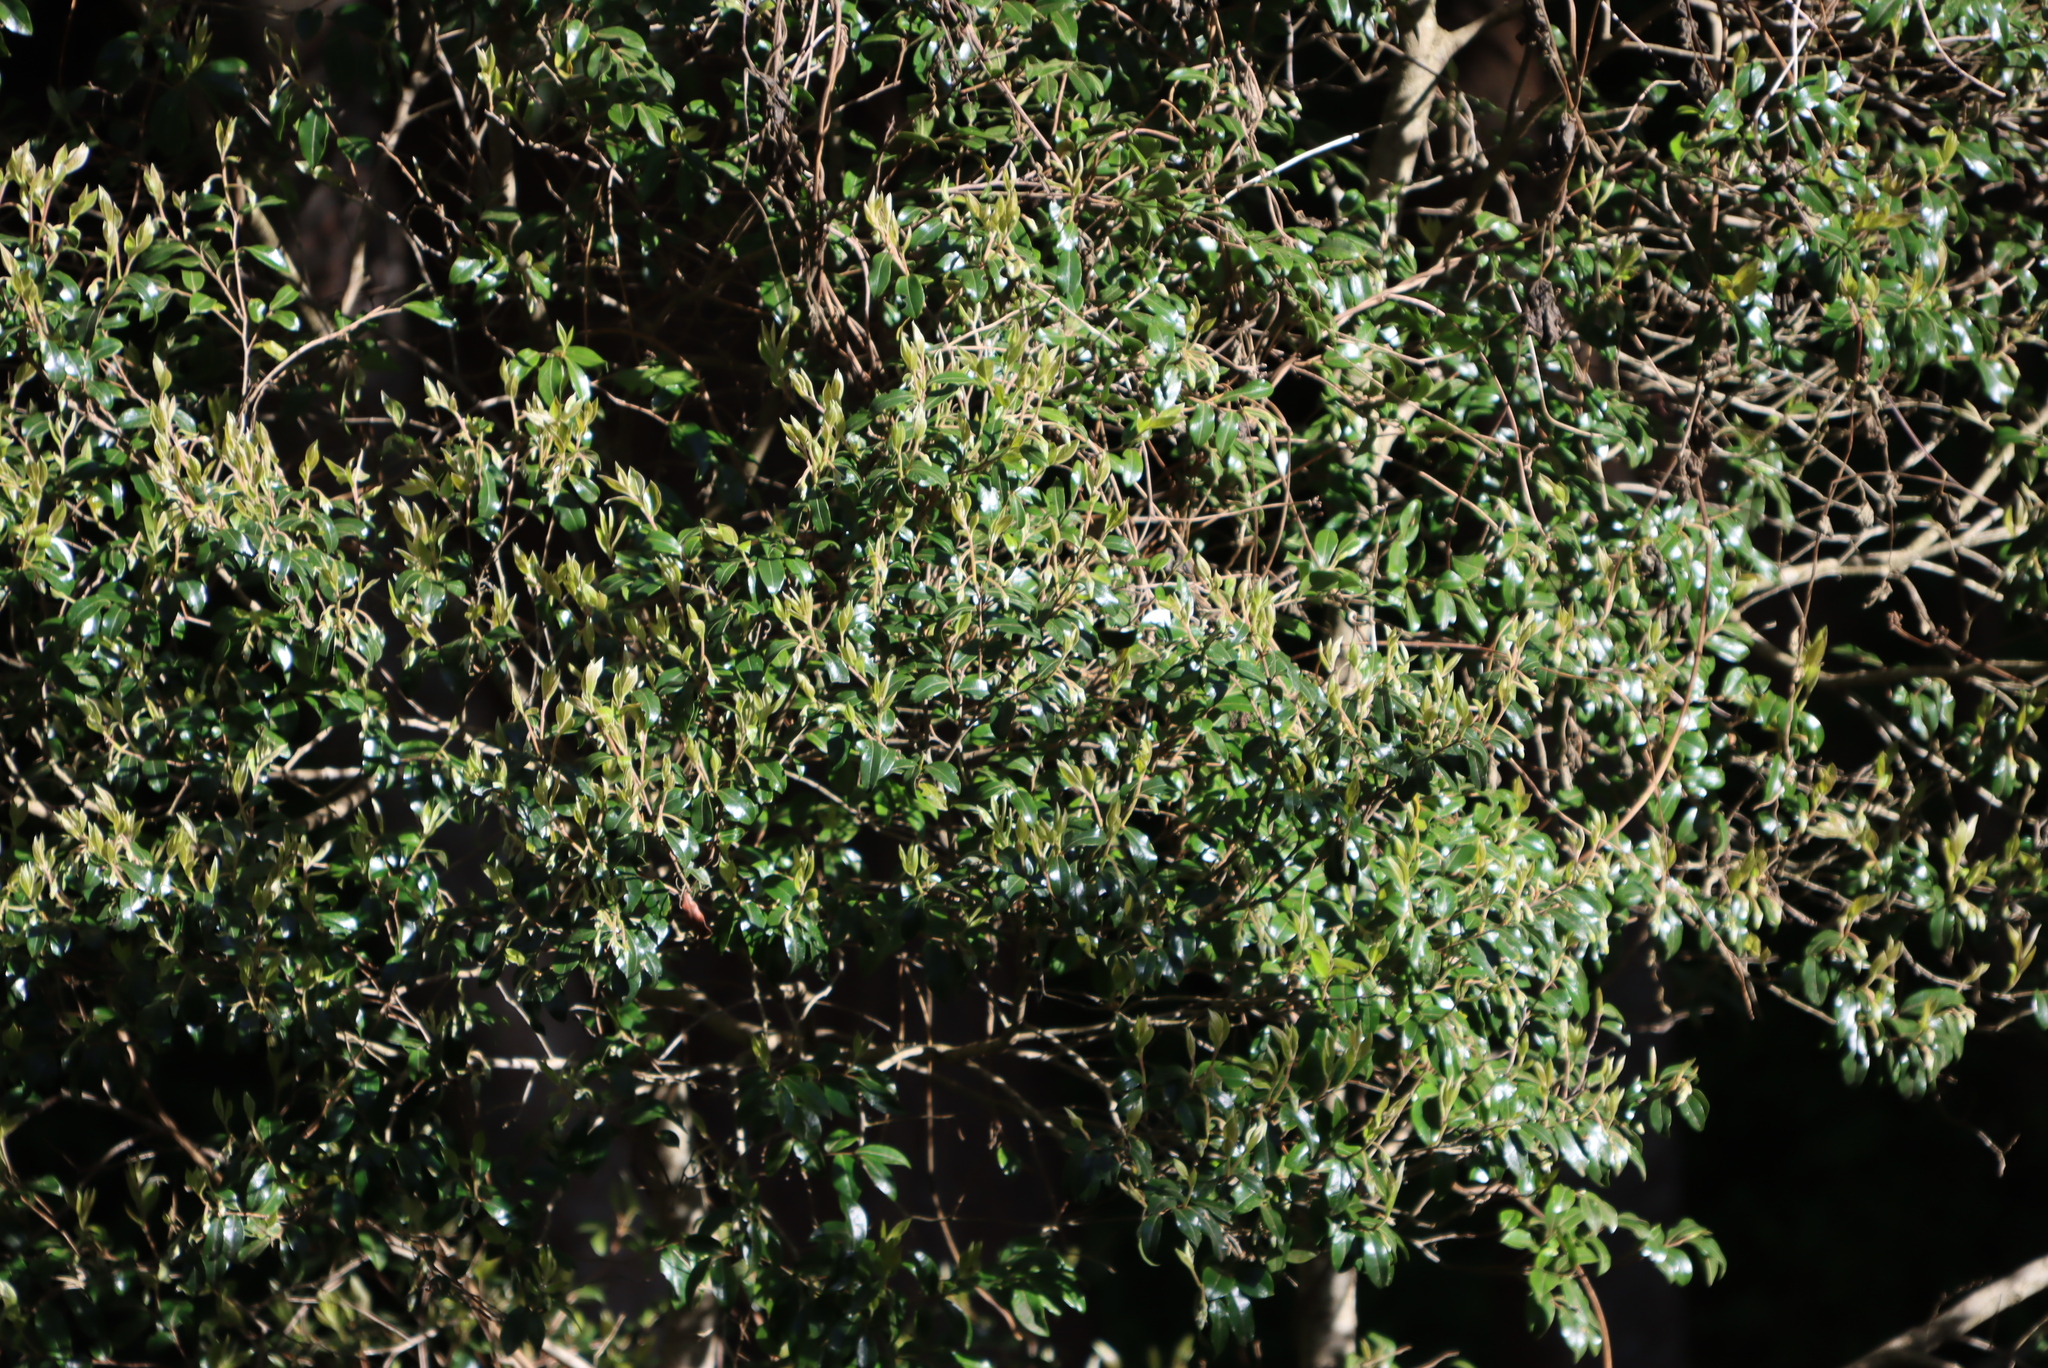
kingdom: Plantae
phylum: Tracheophyta
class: Magnoliopsida
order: Ericales
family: Ebenaceae
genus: Diospyros
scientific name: Diospyros whyteana
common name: Bladder-nut
